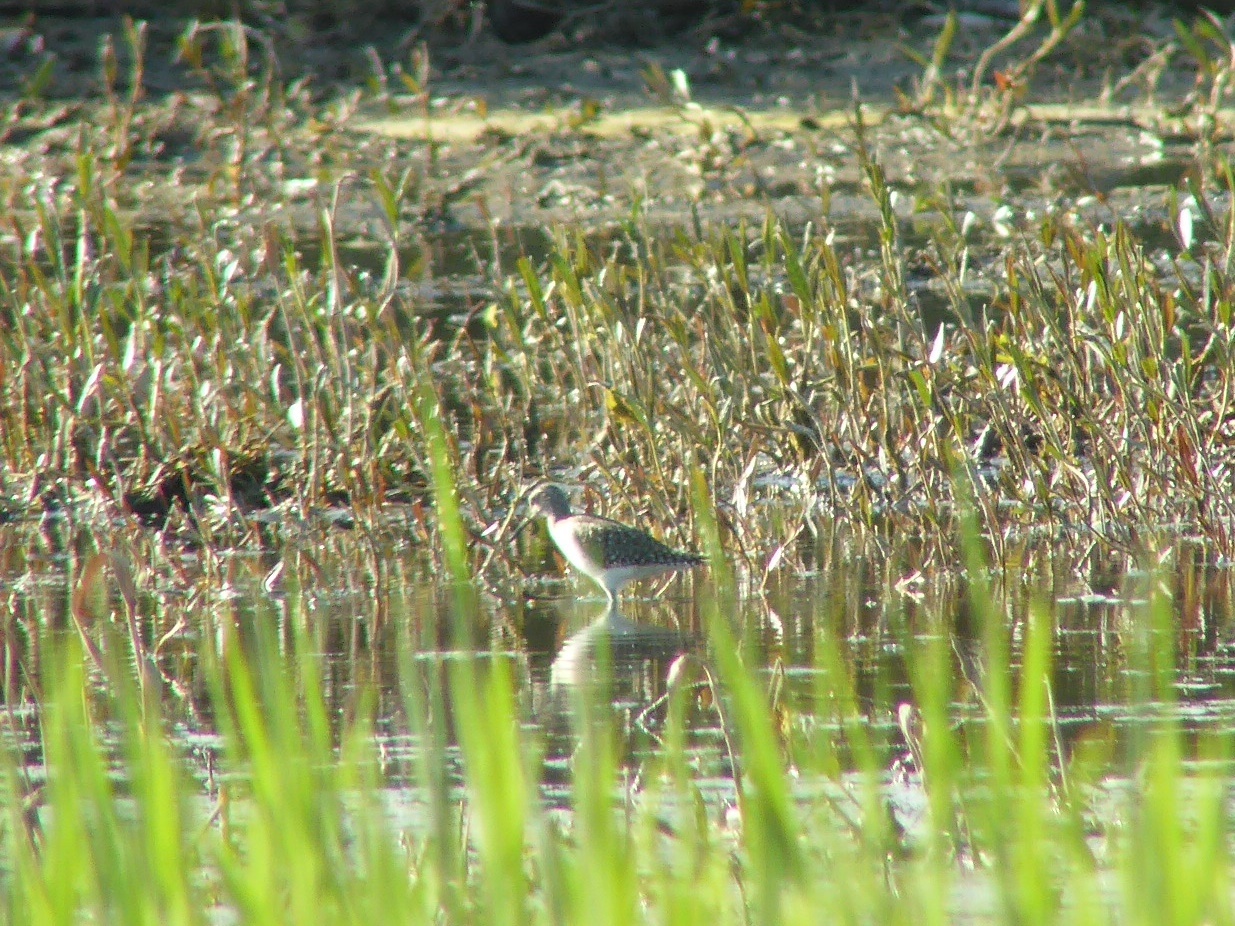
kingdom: Animalia
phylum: Chordata
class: Aves
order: Charadriiformes
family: Scolopacidae
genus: Tringa
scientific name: Tringa glareola
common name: Wood sandpiper
